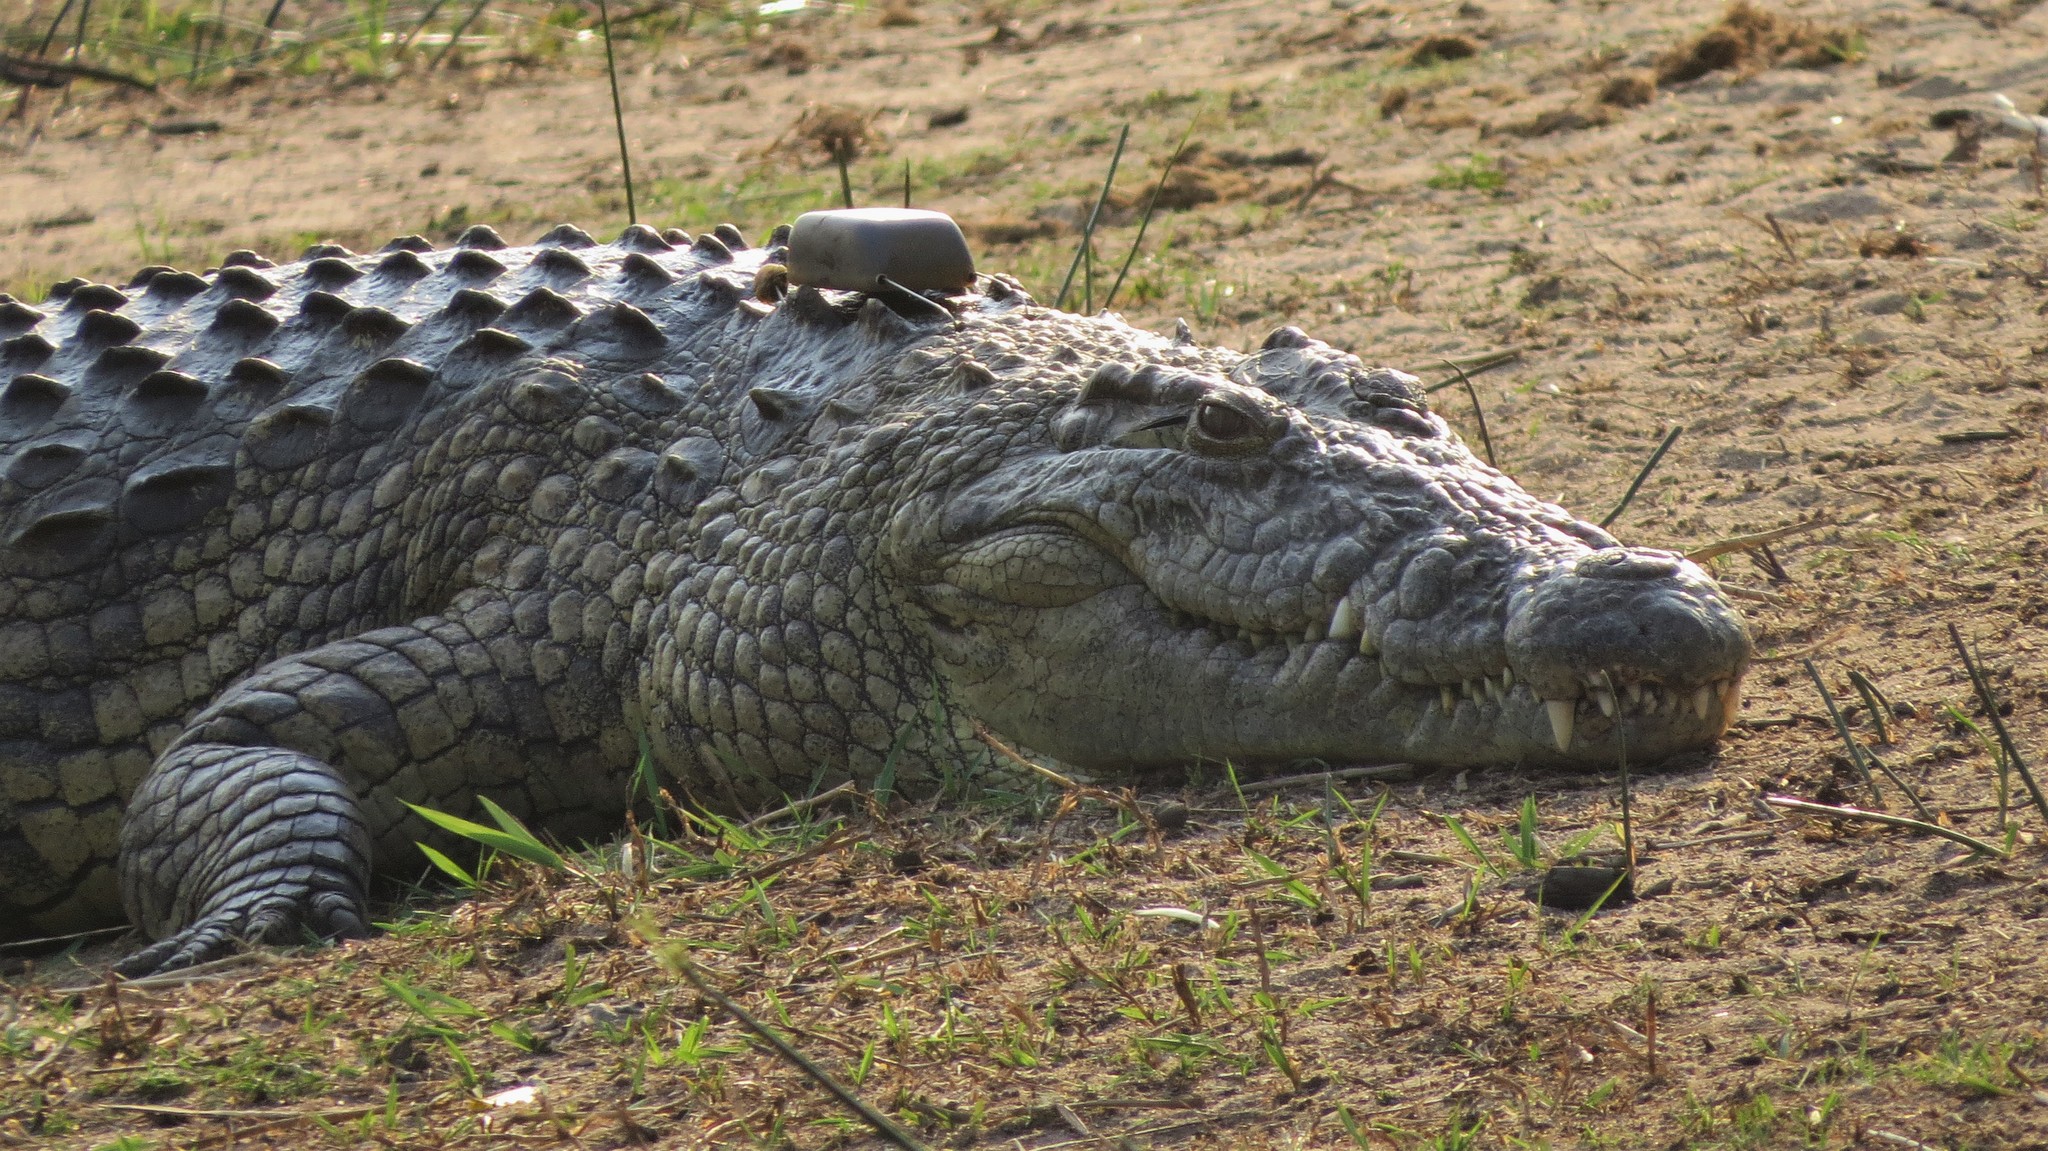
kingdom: Animalia
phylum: Chordata
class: Crocodylia
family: Crocodylidae
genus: Crocodylus
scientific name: Crocodylus niloticus
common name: Nile crocodile
